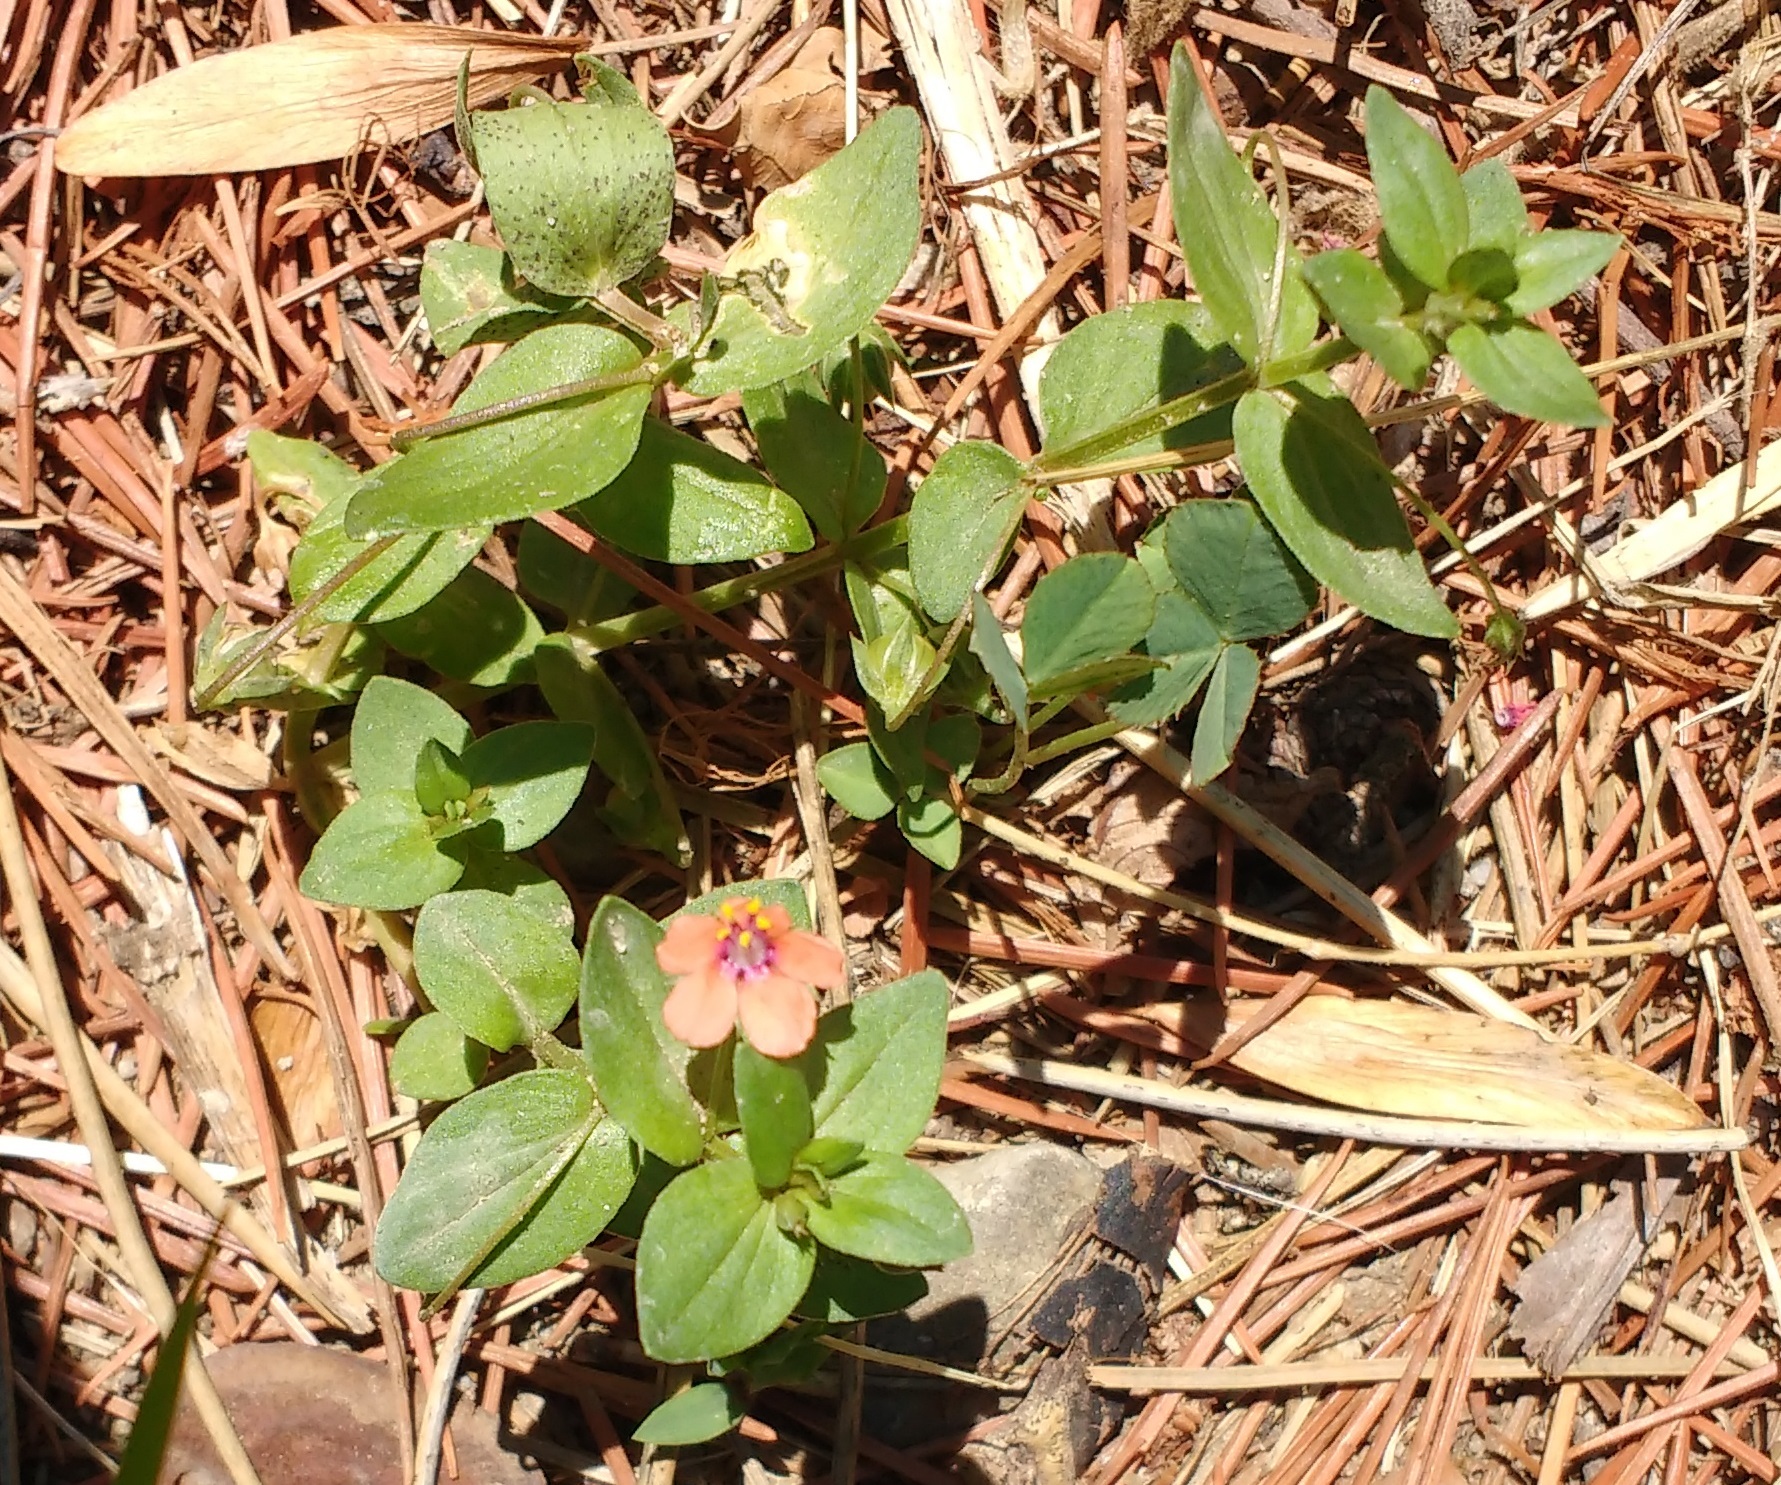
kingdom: Plantae
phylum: Tracheophyta
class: Magnoliopsida
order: Ericales
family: Primulaceae
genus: Lysimachia
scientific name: Lysimachia arvensis
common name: Scarlet pimpernel
